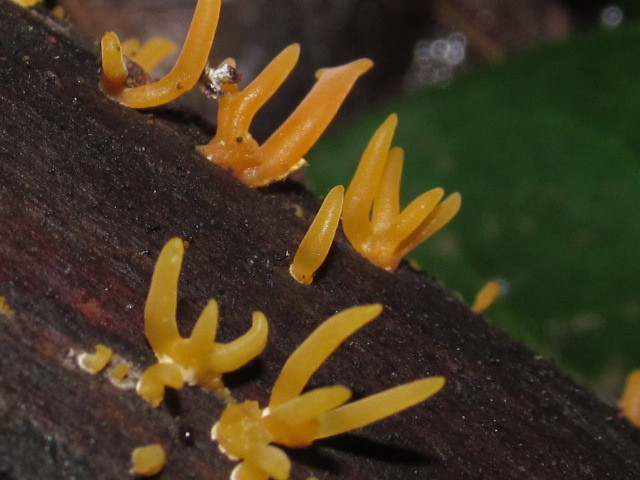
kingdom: Fungi
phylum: Basidiomycota
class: Dacrymycetes
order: Dacrymycetales
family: Dacrymycetaceae
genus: Calocera
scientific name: Calocera cornea
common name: Small stagshorn
